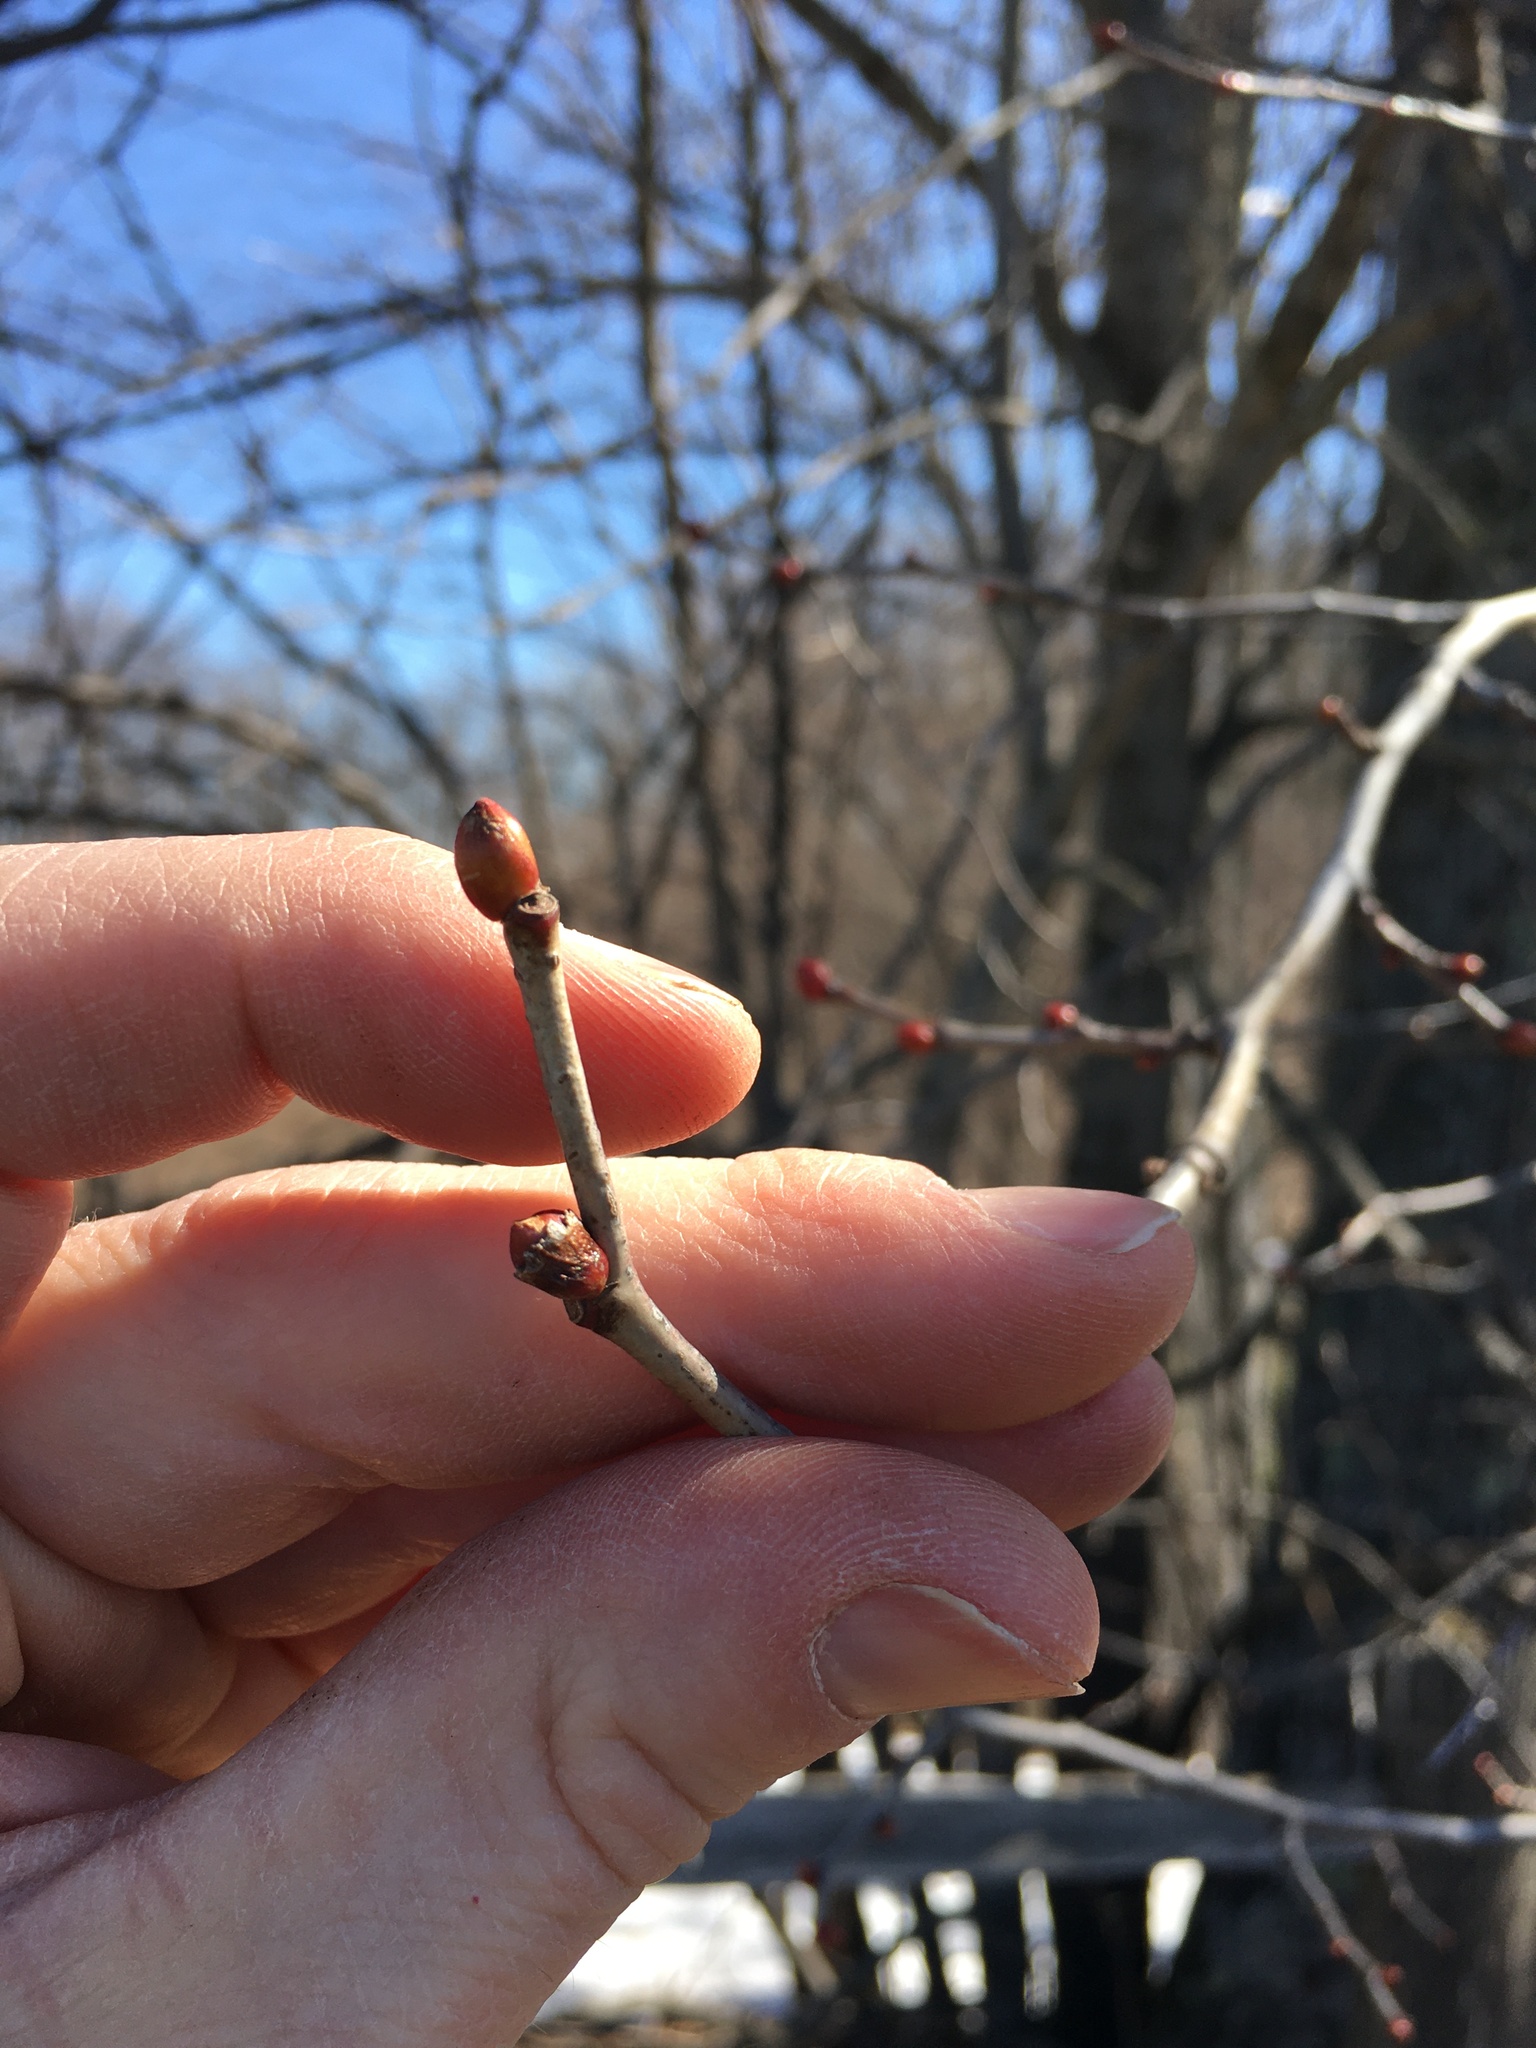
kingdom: Plantae
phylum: Tracheophyta
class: Magnoliopsida
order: Malvales
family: Malvaceae
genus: Tilia
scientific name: Tilia americana
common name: Basswood
